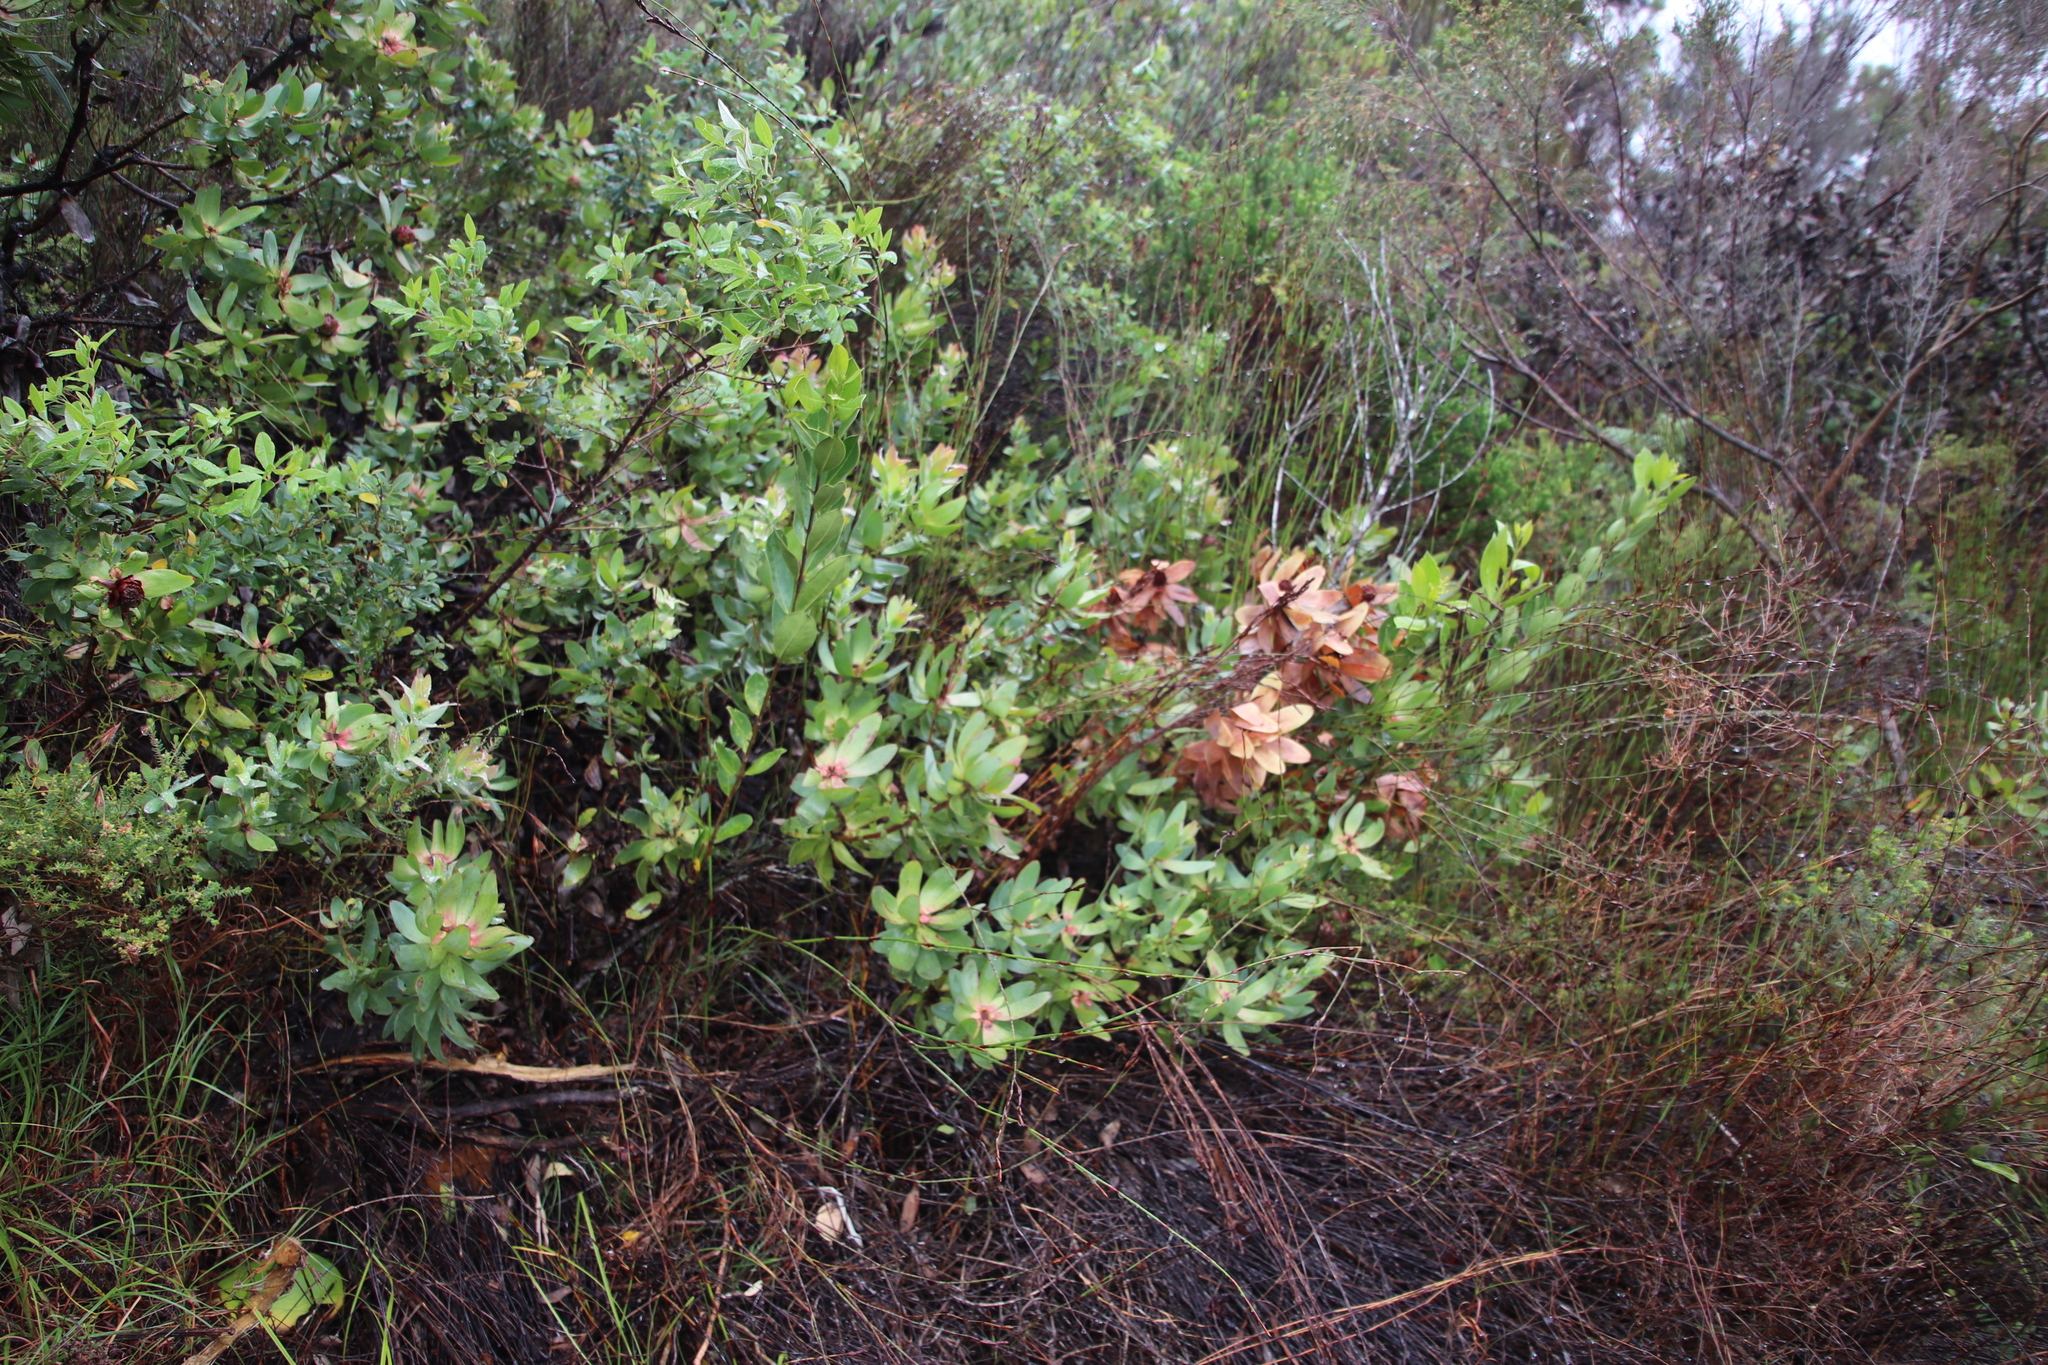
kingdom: Plantae
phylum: Tracheophyta
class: Magnoliopsida
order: Proteales
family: Proteaceae
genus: Leucadendron
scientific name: Leucadendron tinctum
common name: Spicy conebush
